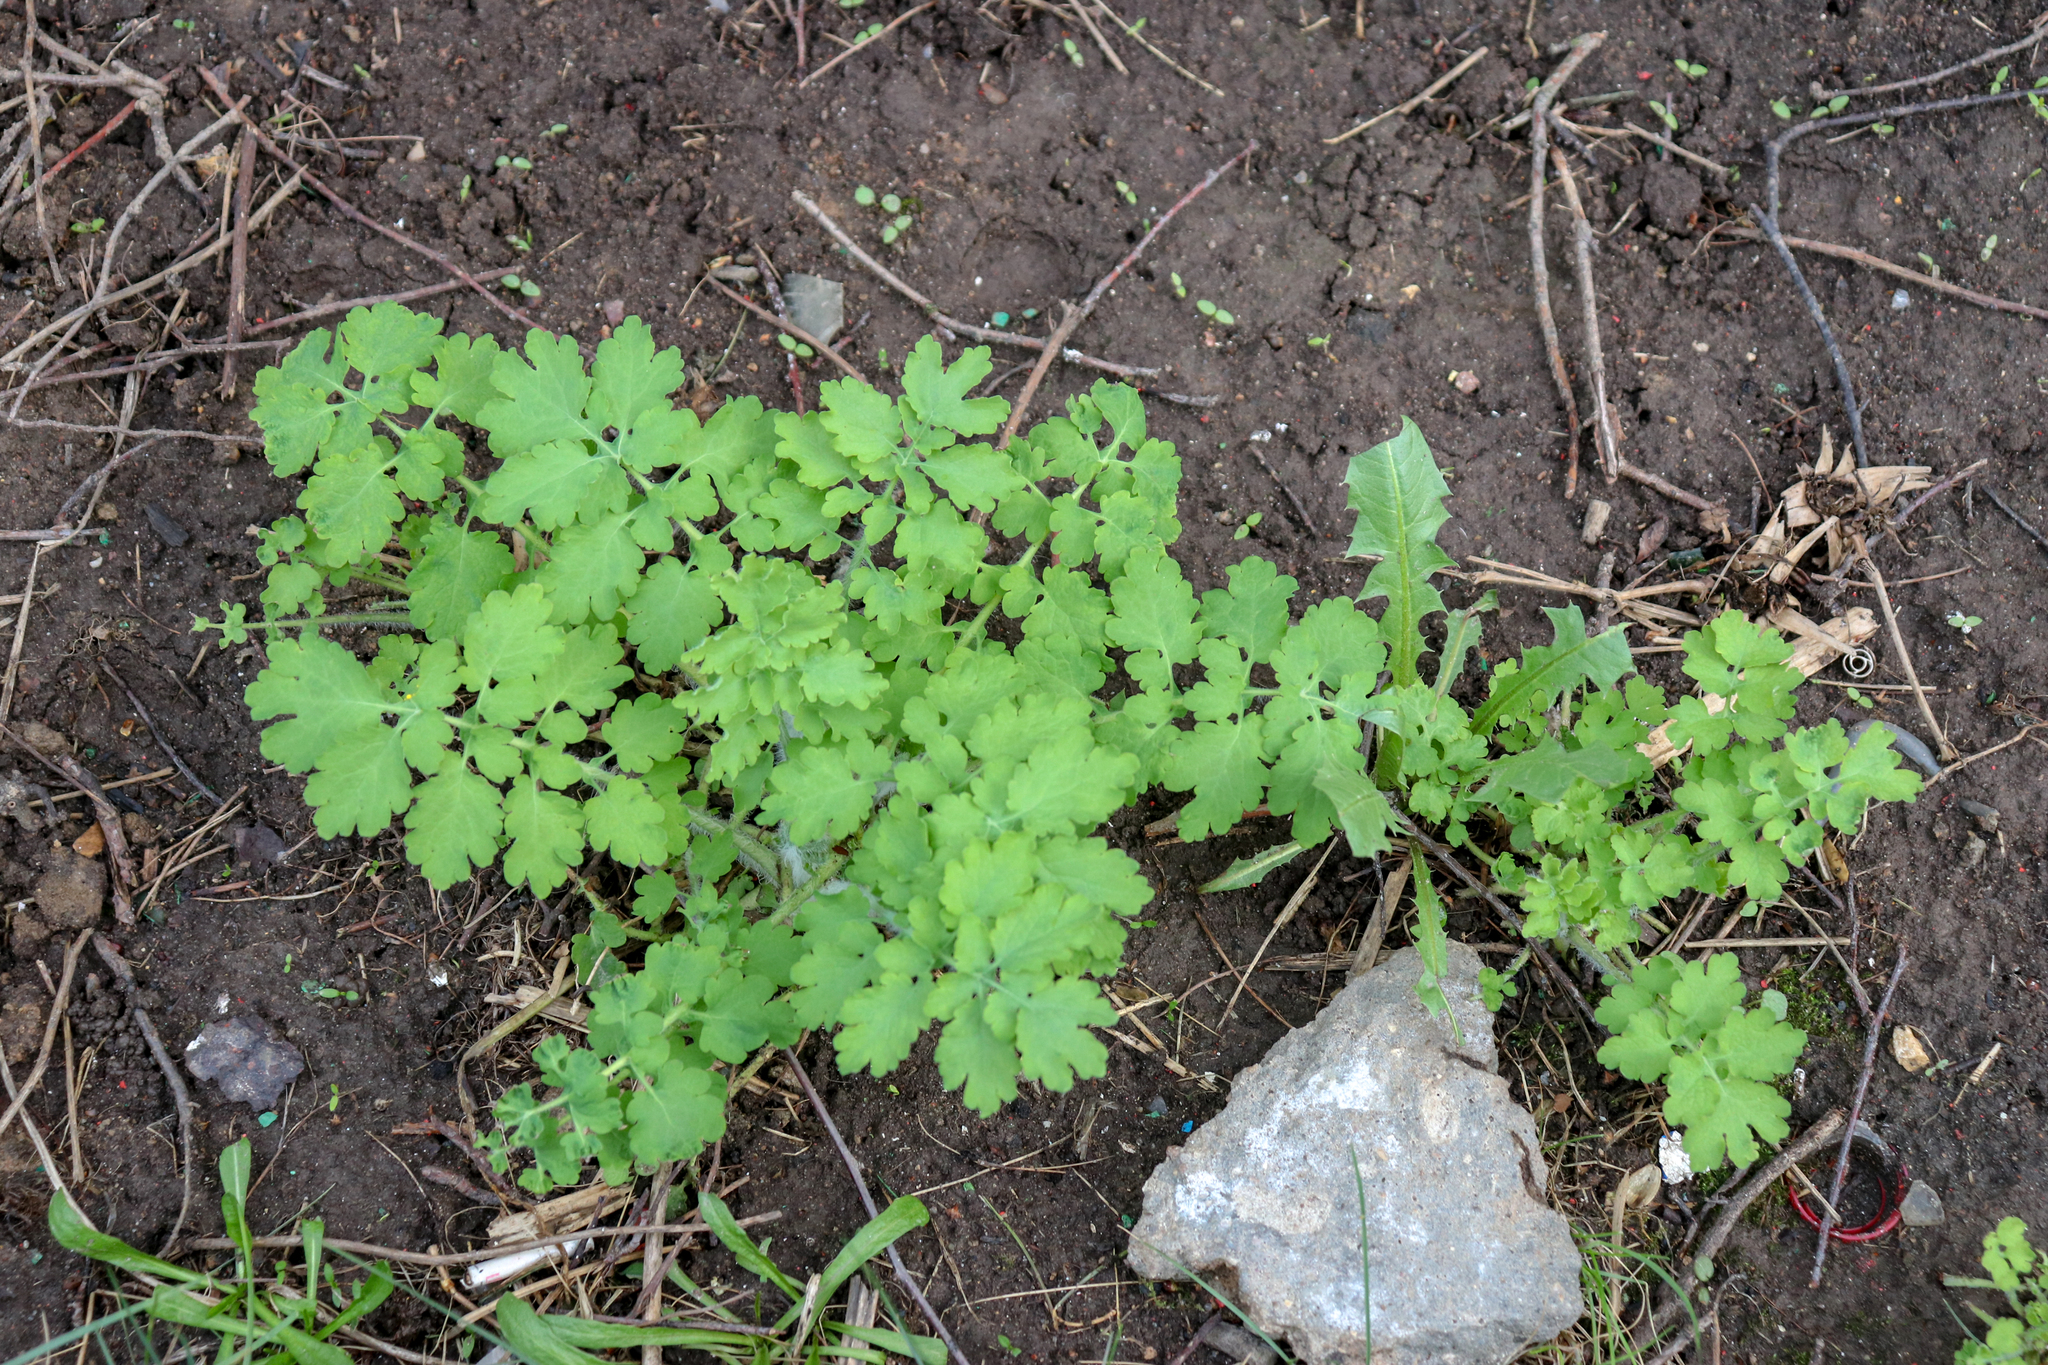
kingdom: Plantae
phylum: Tracheophyta
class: Magnoliopsida
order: Ranunculales
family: Papaveraceae
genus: Chelidonium
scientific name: Chelidonium majus
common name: Greater celandine
